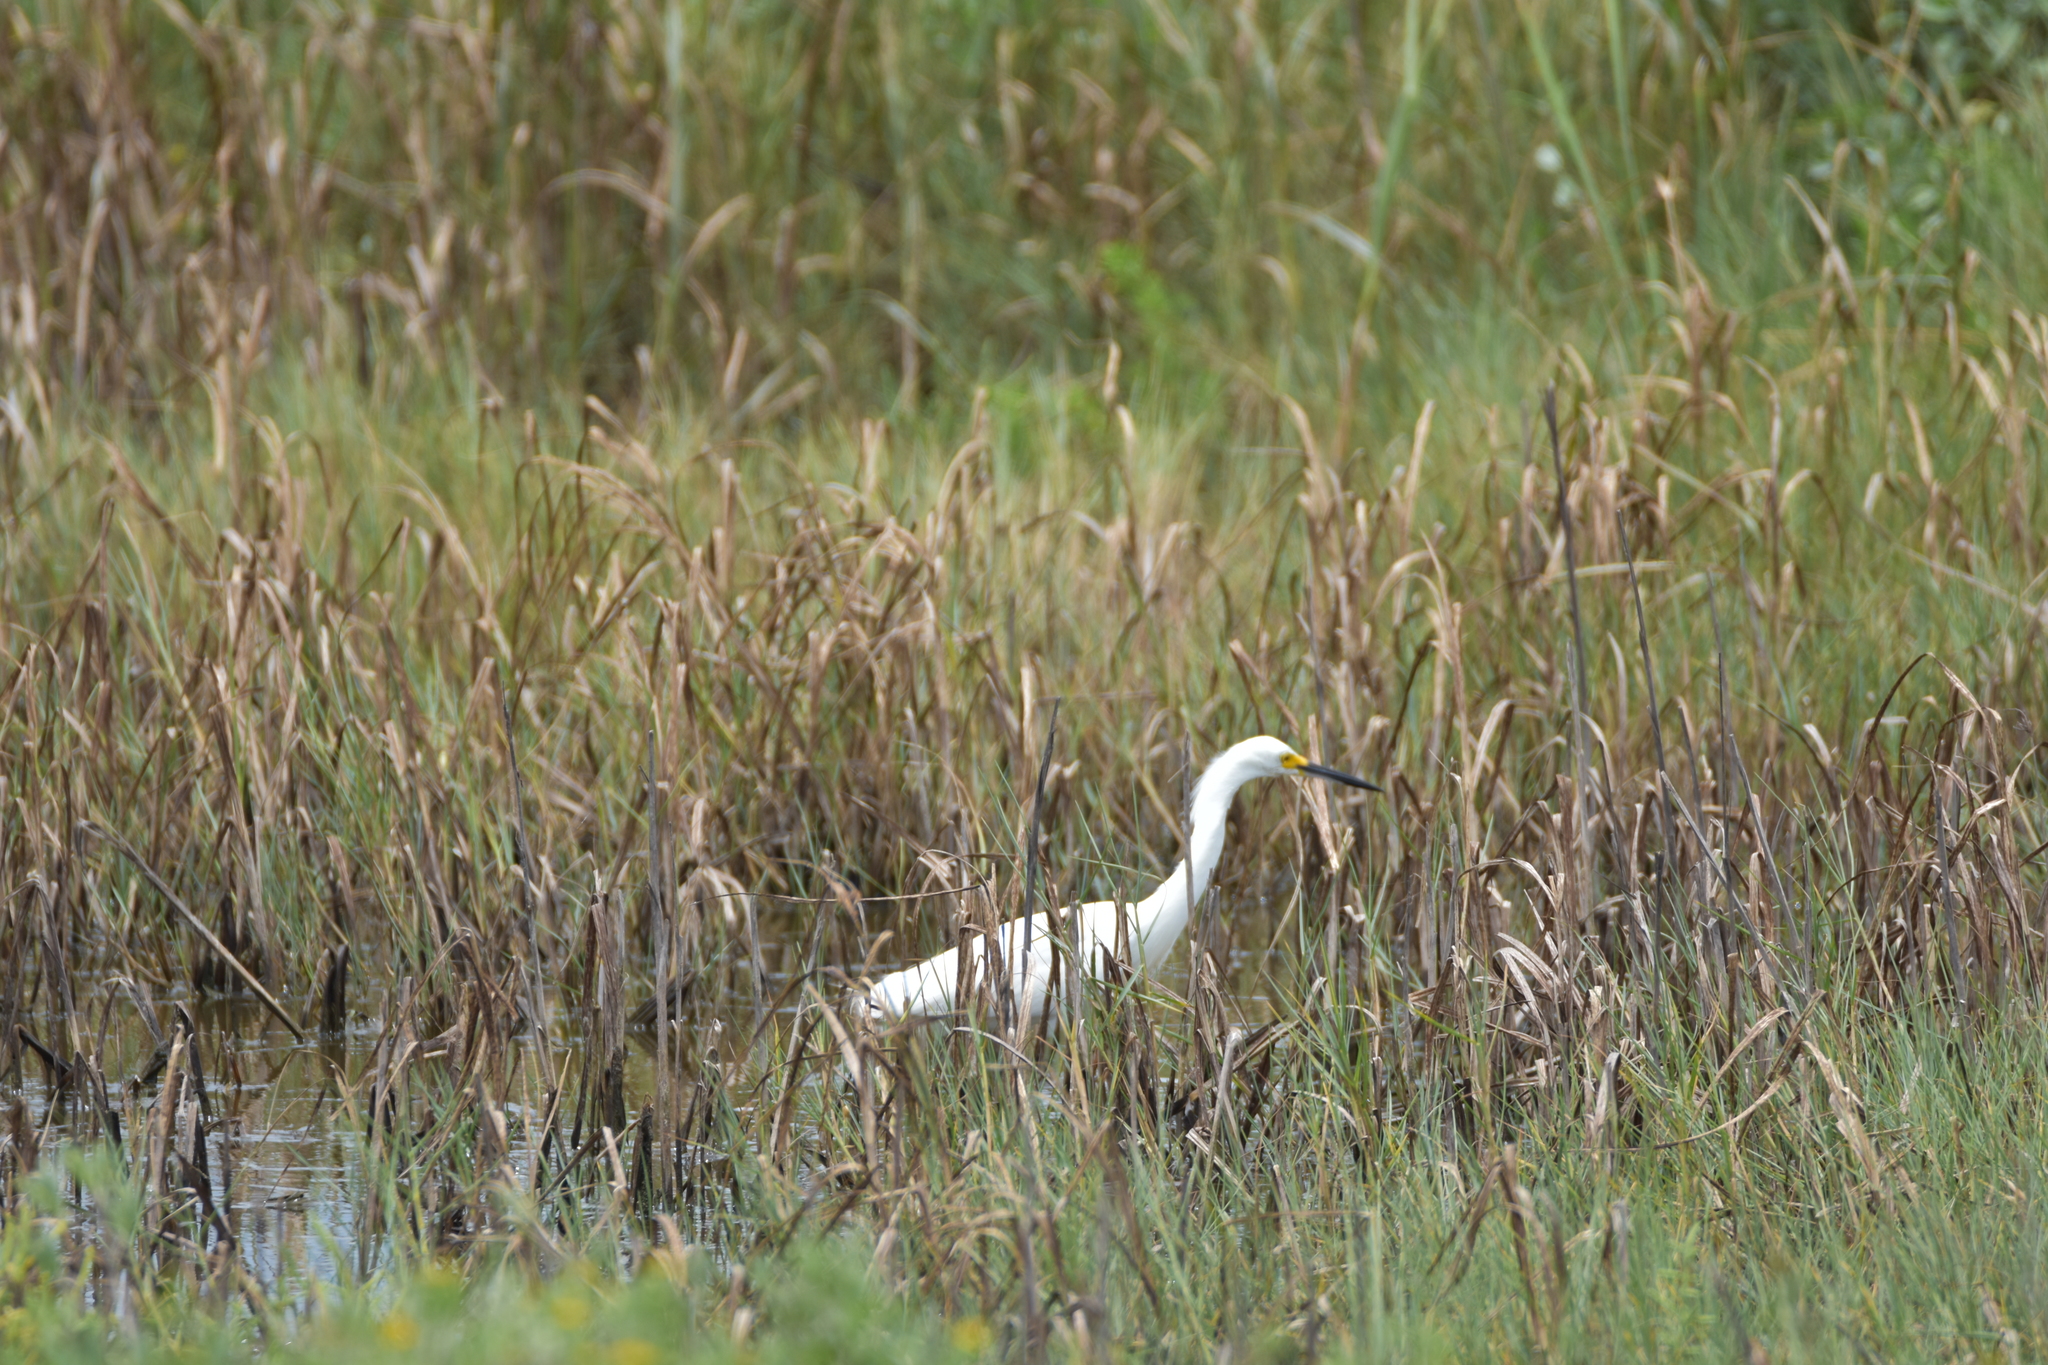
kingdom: Animalia
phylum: Chordata
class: Aves
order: Pelecaniformes
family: Ardeidae
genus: Egretta
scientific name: Egretta thula
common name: Snowy egret
